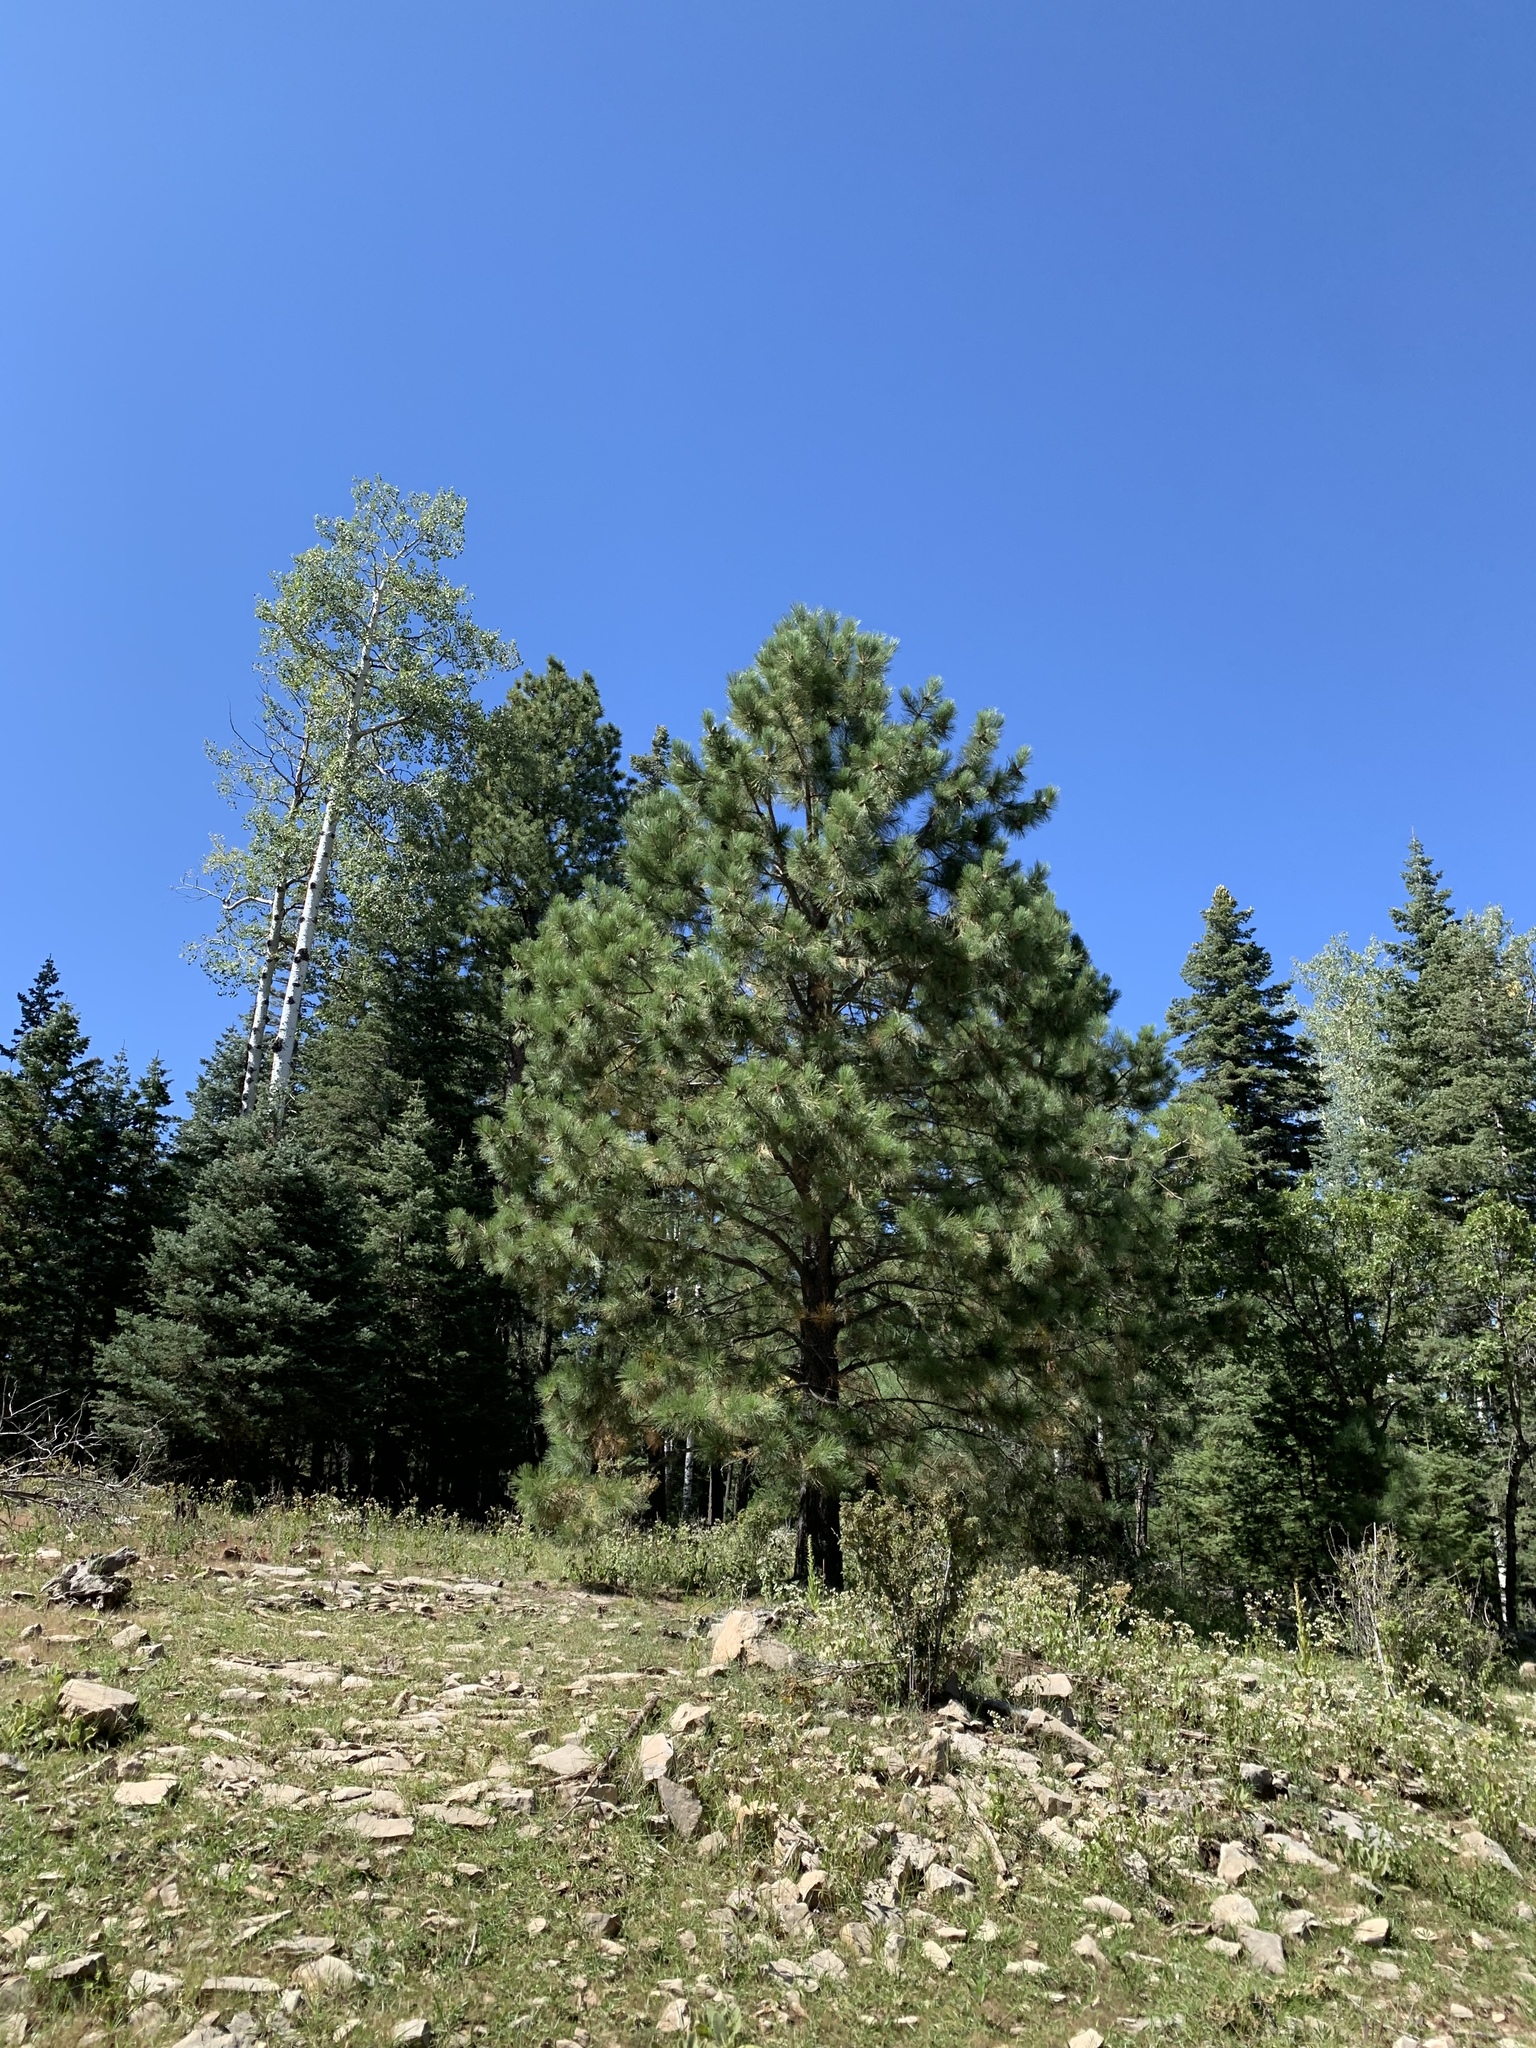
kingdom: Plantae
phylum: Tracheophyta
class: Pinopsida
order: Pinales
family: Pinaceae
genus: Pinus
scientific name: Pinus ponderosa
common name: Western yellow-pine
